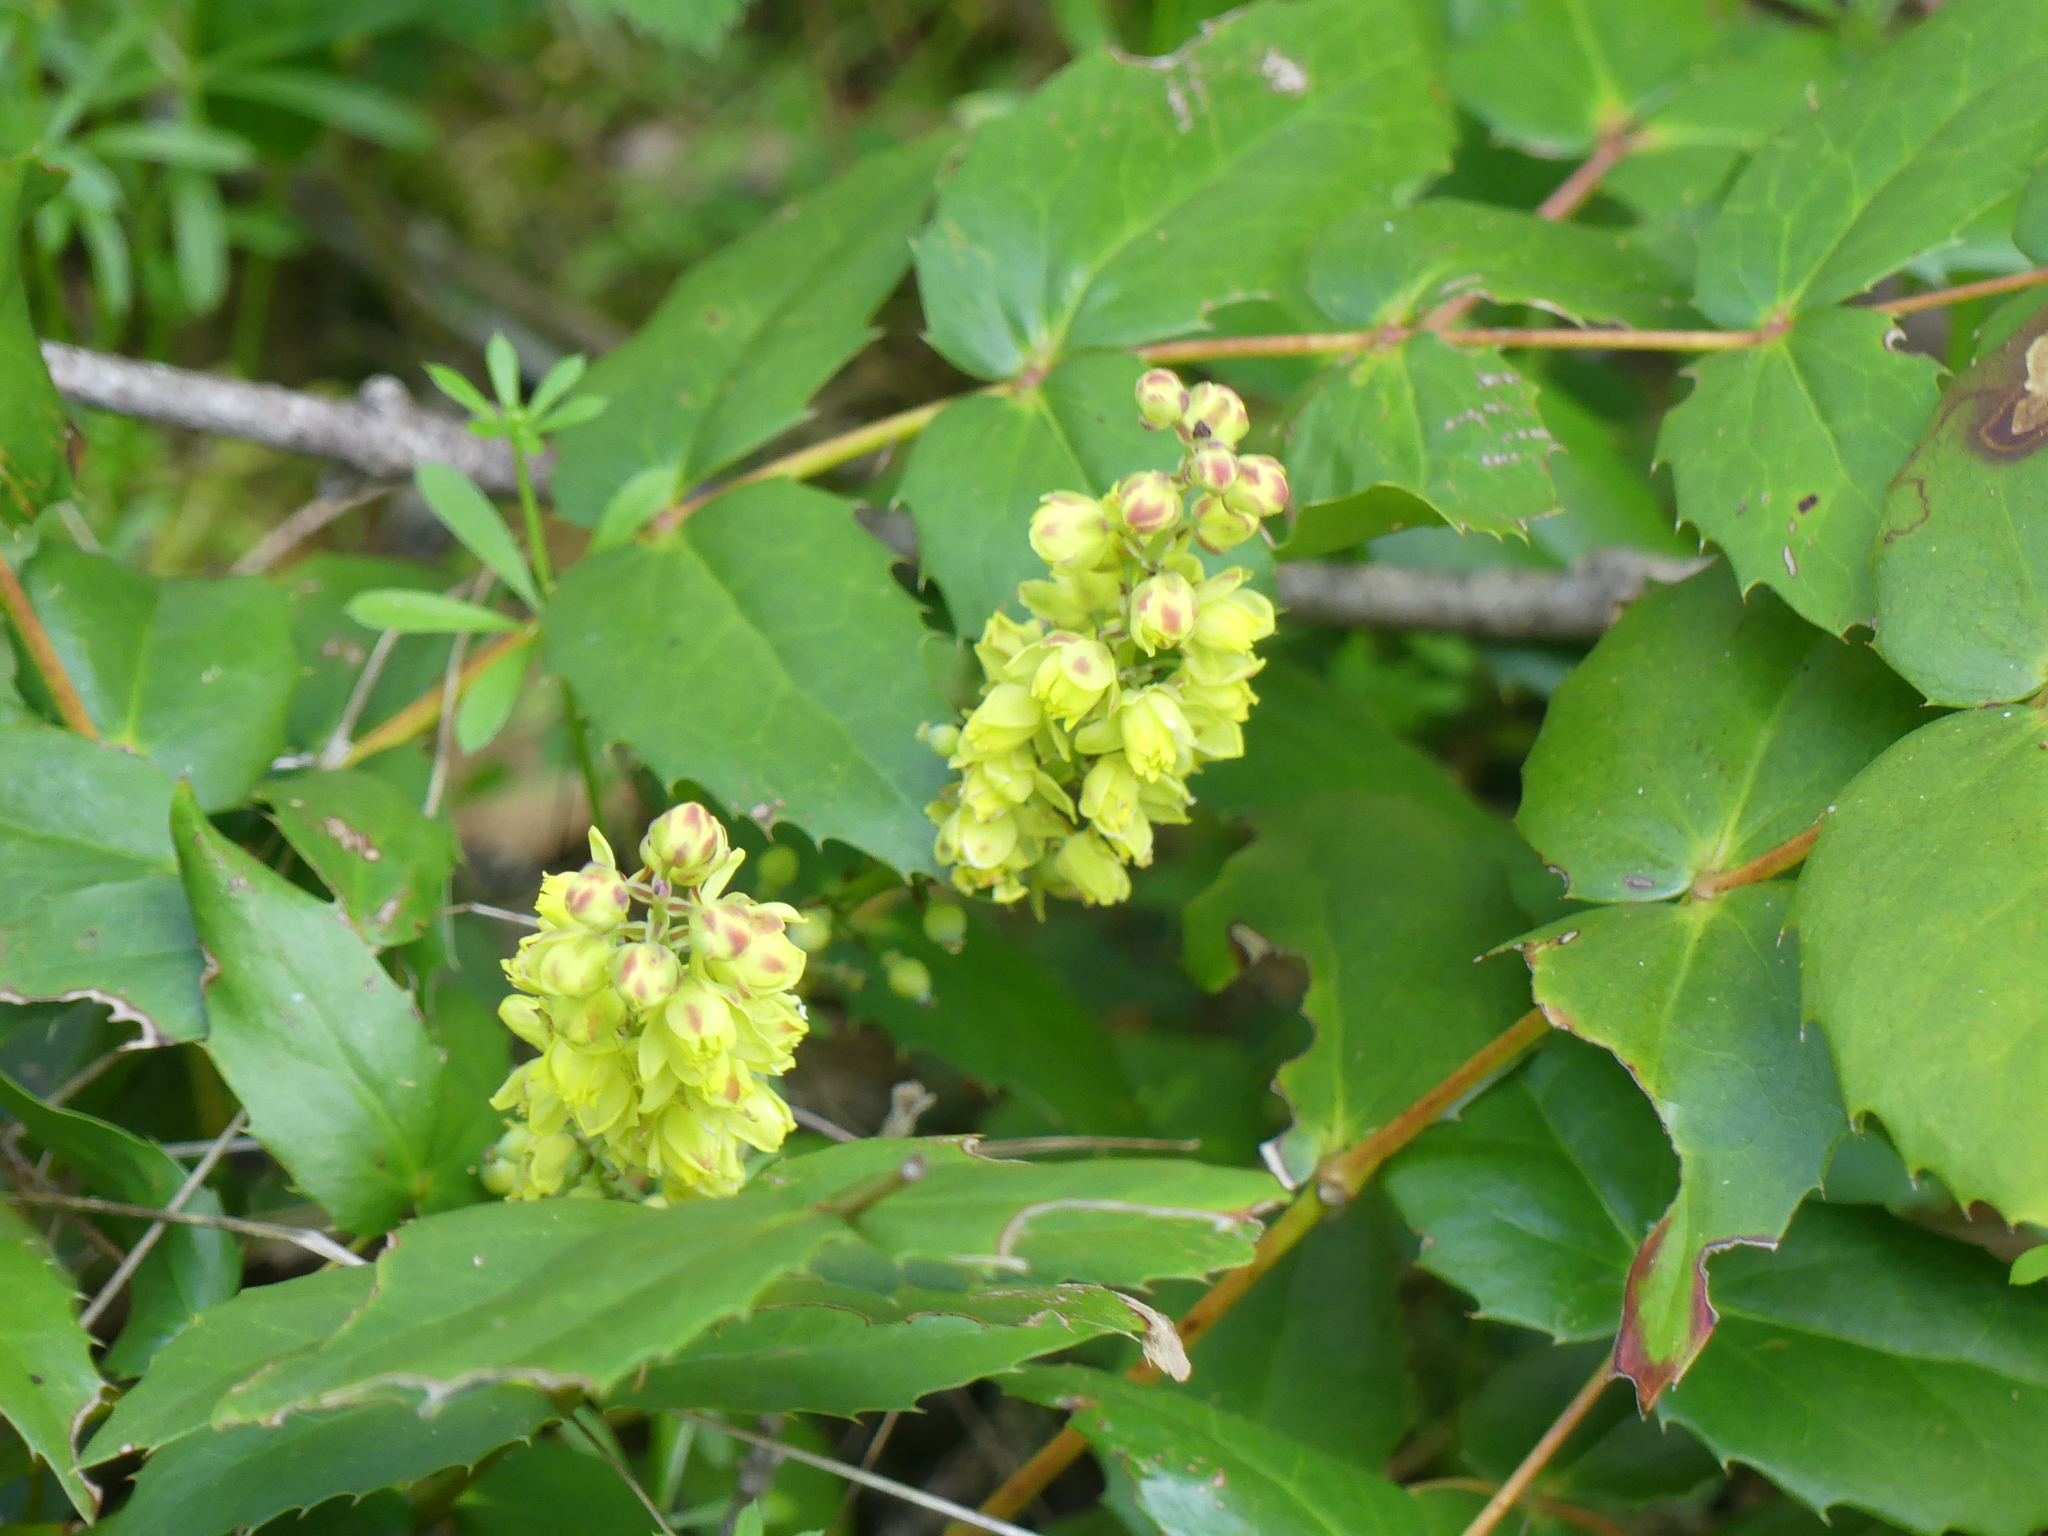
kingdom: Plantae
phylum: Tracheophyta
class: Magnoliopsida
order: Ranunculales
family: Berberidaceae
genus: Mahonia
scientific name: Mahonia nervosa
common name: Cascade oregon-grape
